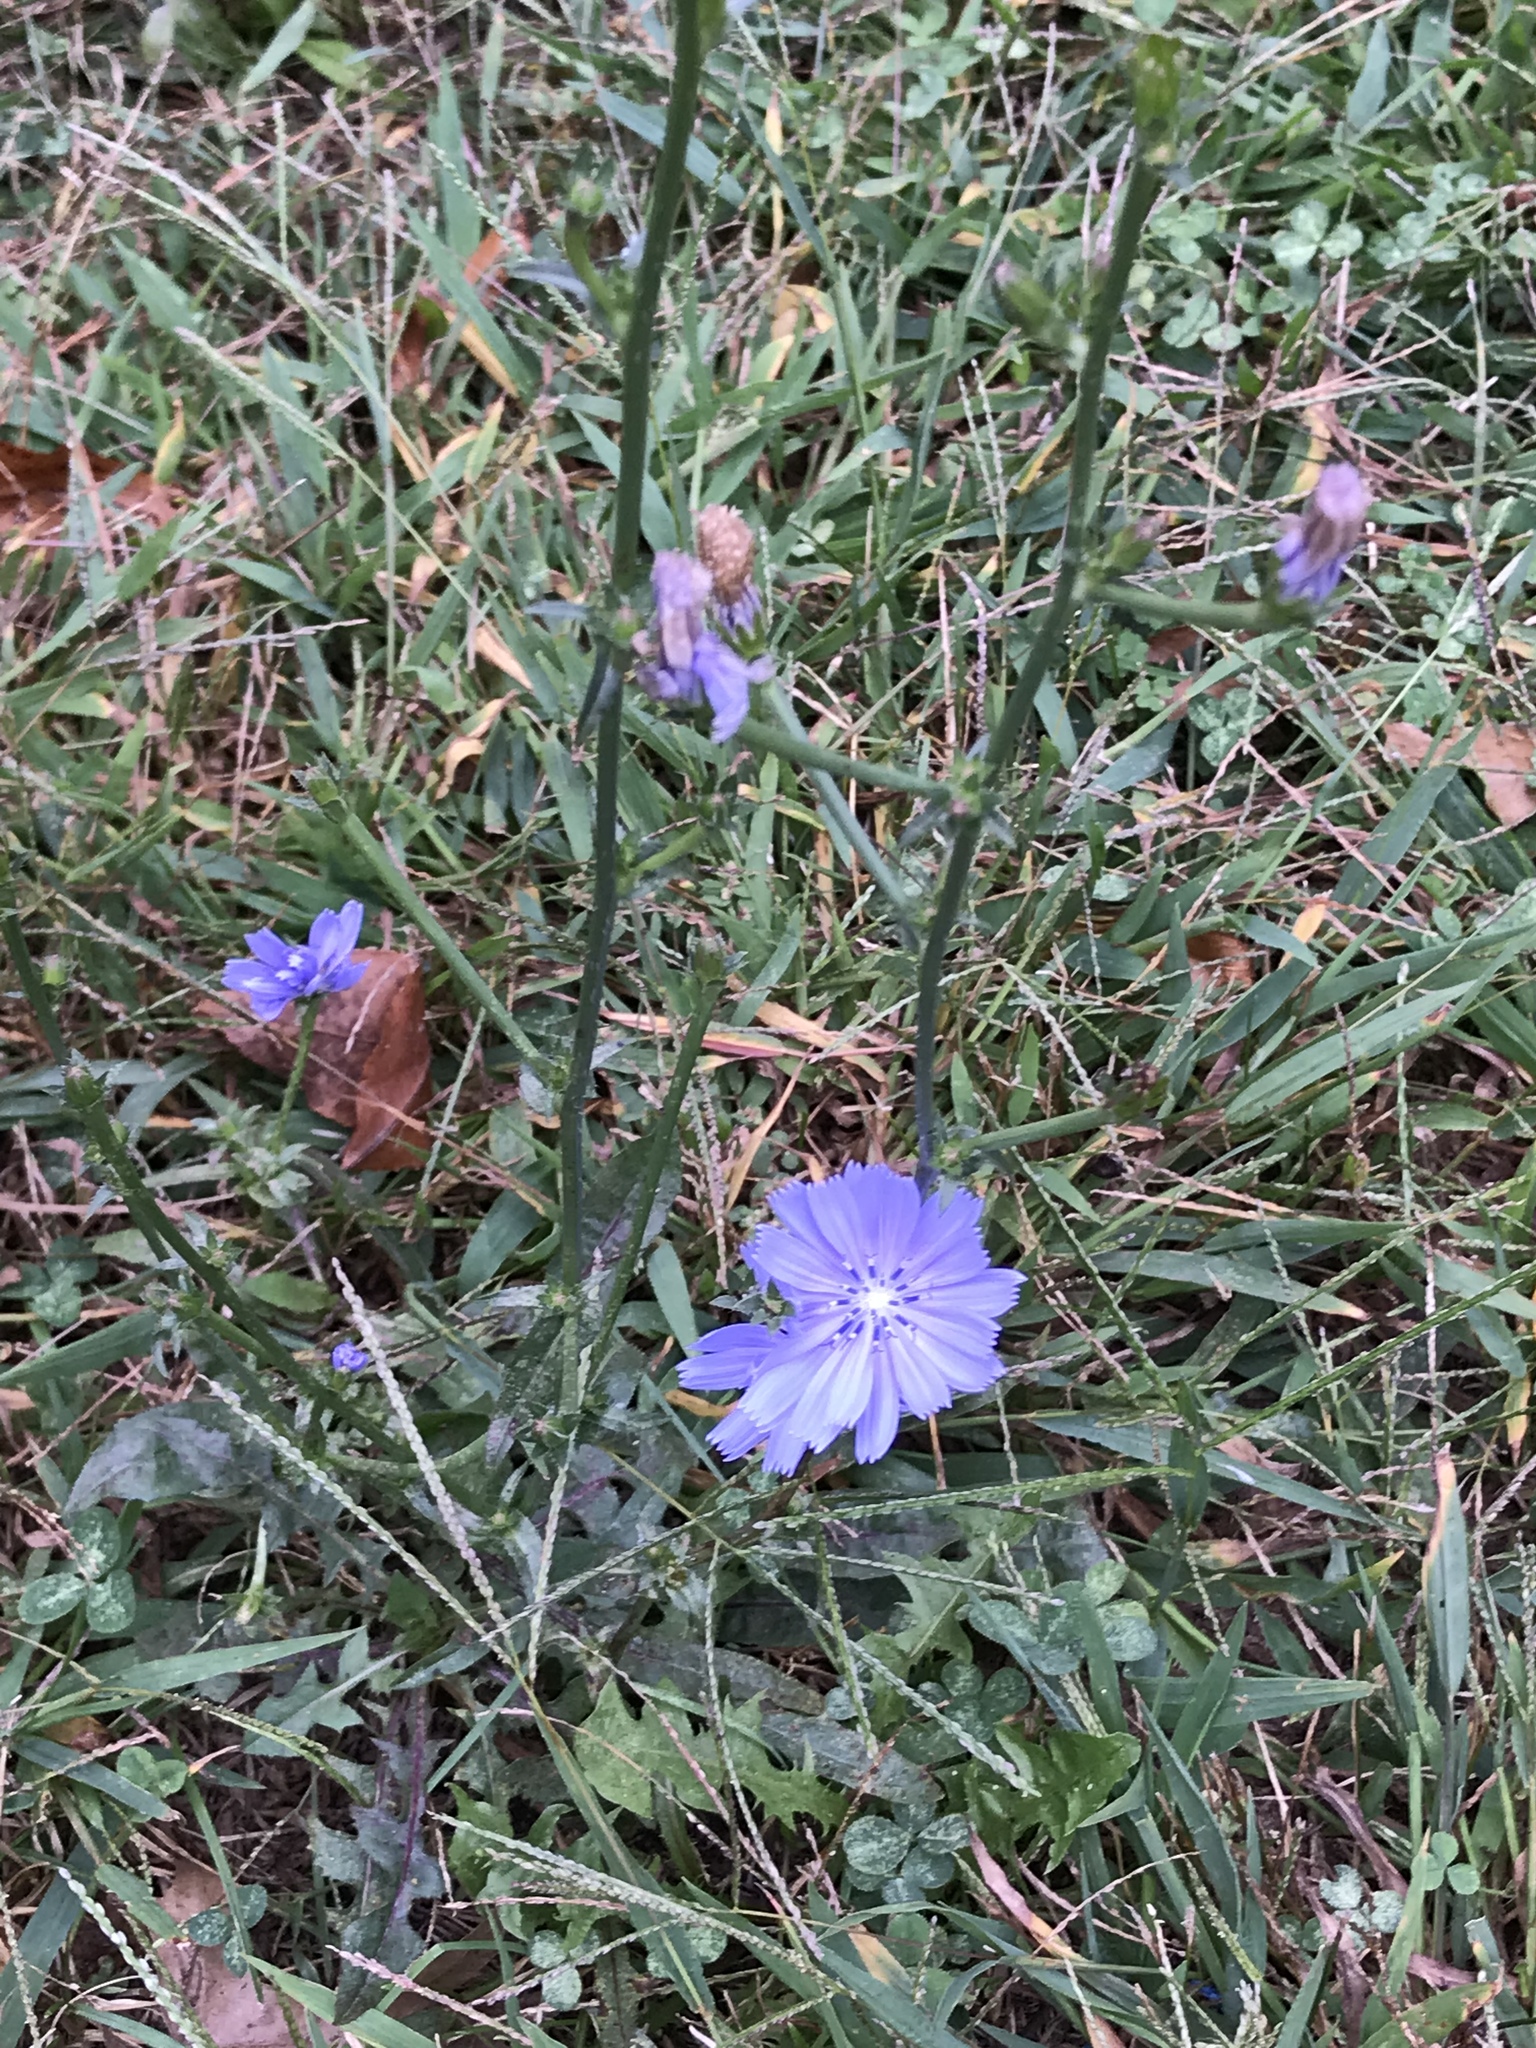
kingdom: Plantae
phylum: Tracheophyta
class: Magnoliopsida
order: Asterales
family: Asteraceae
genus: Cichorium
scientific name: Cichorium intybus
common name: Chicory
